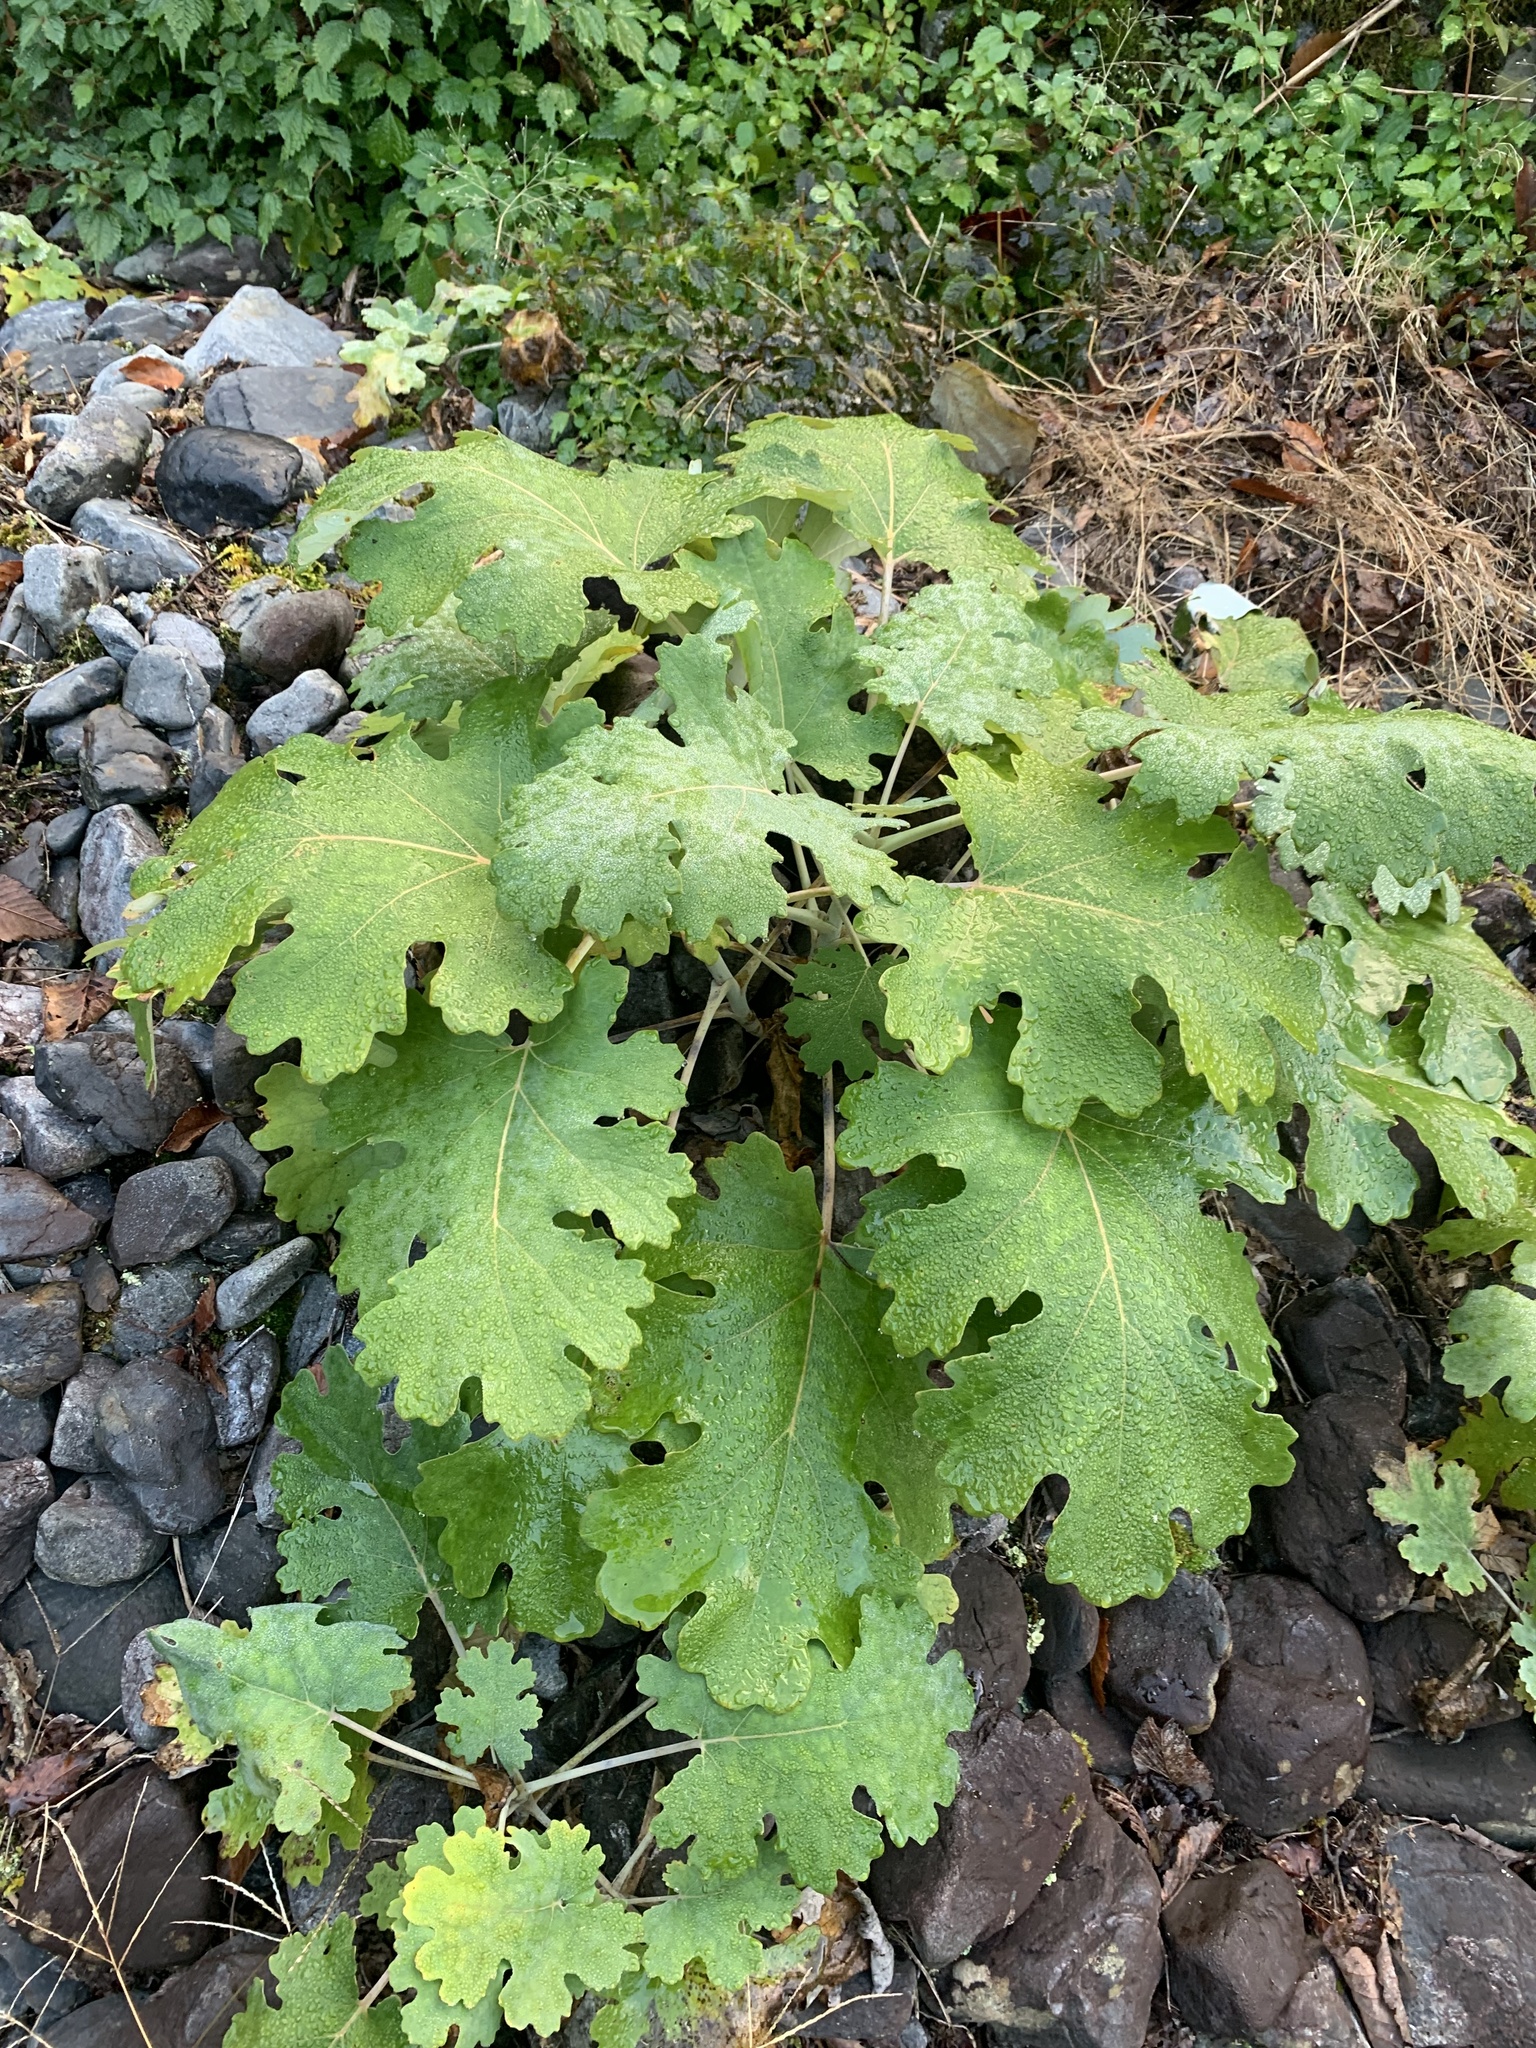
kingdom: Plantae
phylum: Tracheophyta
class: Magnoliopsida
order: Ranunculales
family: Papaveraceae
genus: Macleaya
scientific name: Macleaya cordata
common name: Plume poppy
